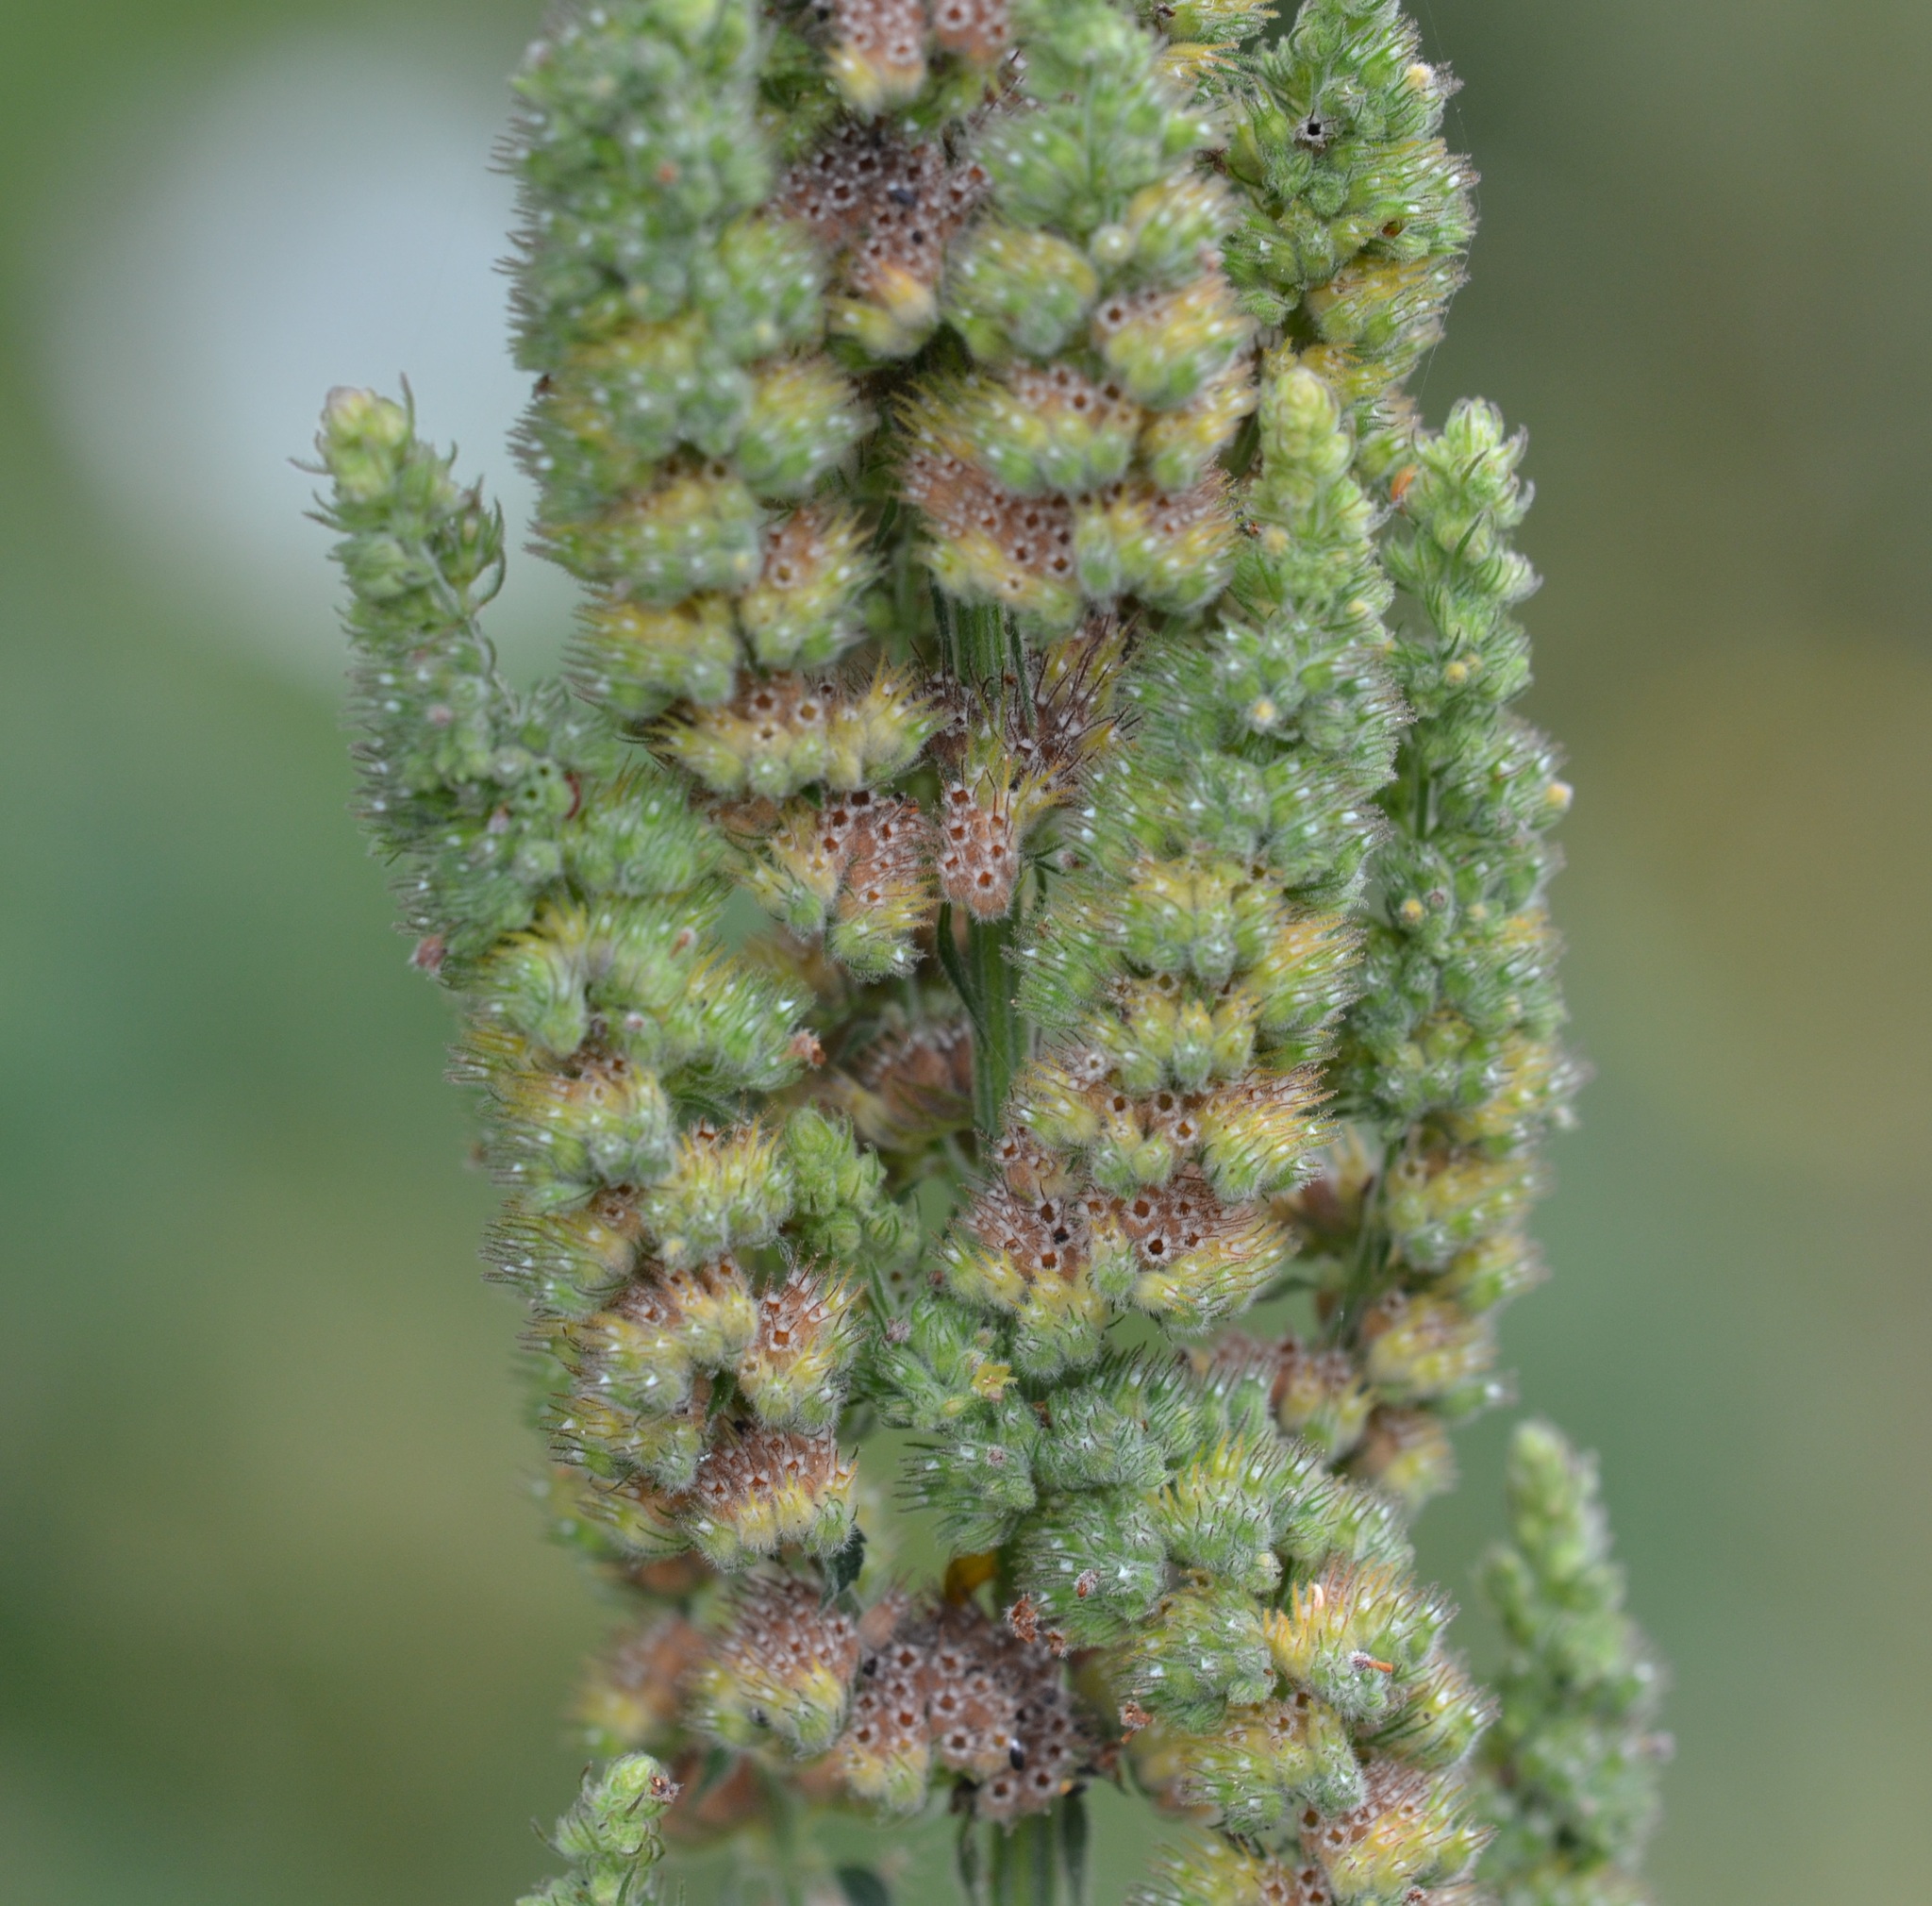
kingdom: Plantae
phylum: Tracheophyta
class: Magnoliopsida
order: Lamiales
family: Lamiaceae
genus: Mesosphaerum
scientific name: Mesosphaerum pectinatum
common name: Comb hyptis
